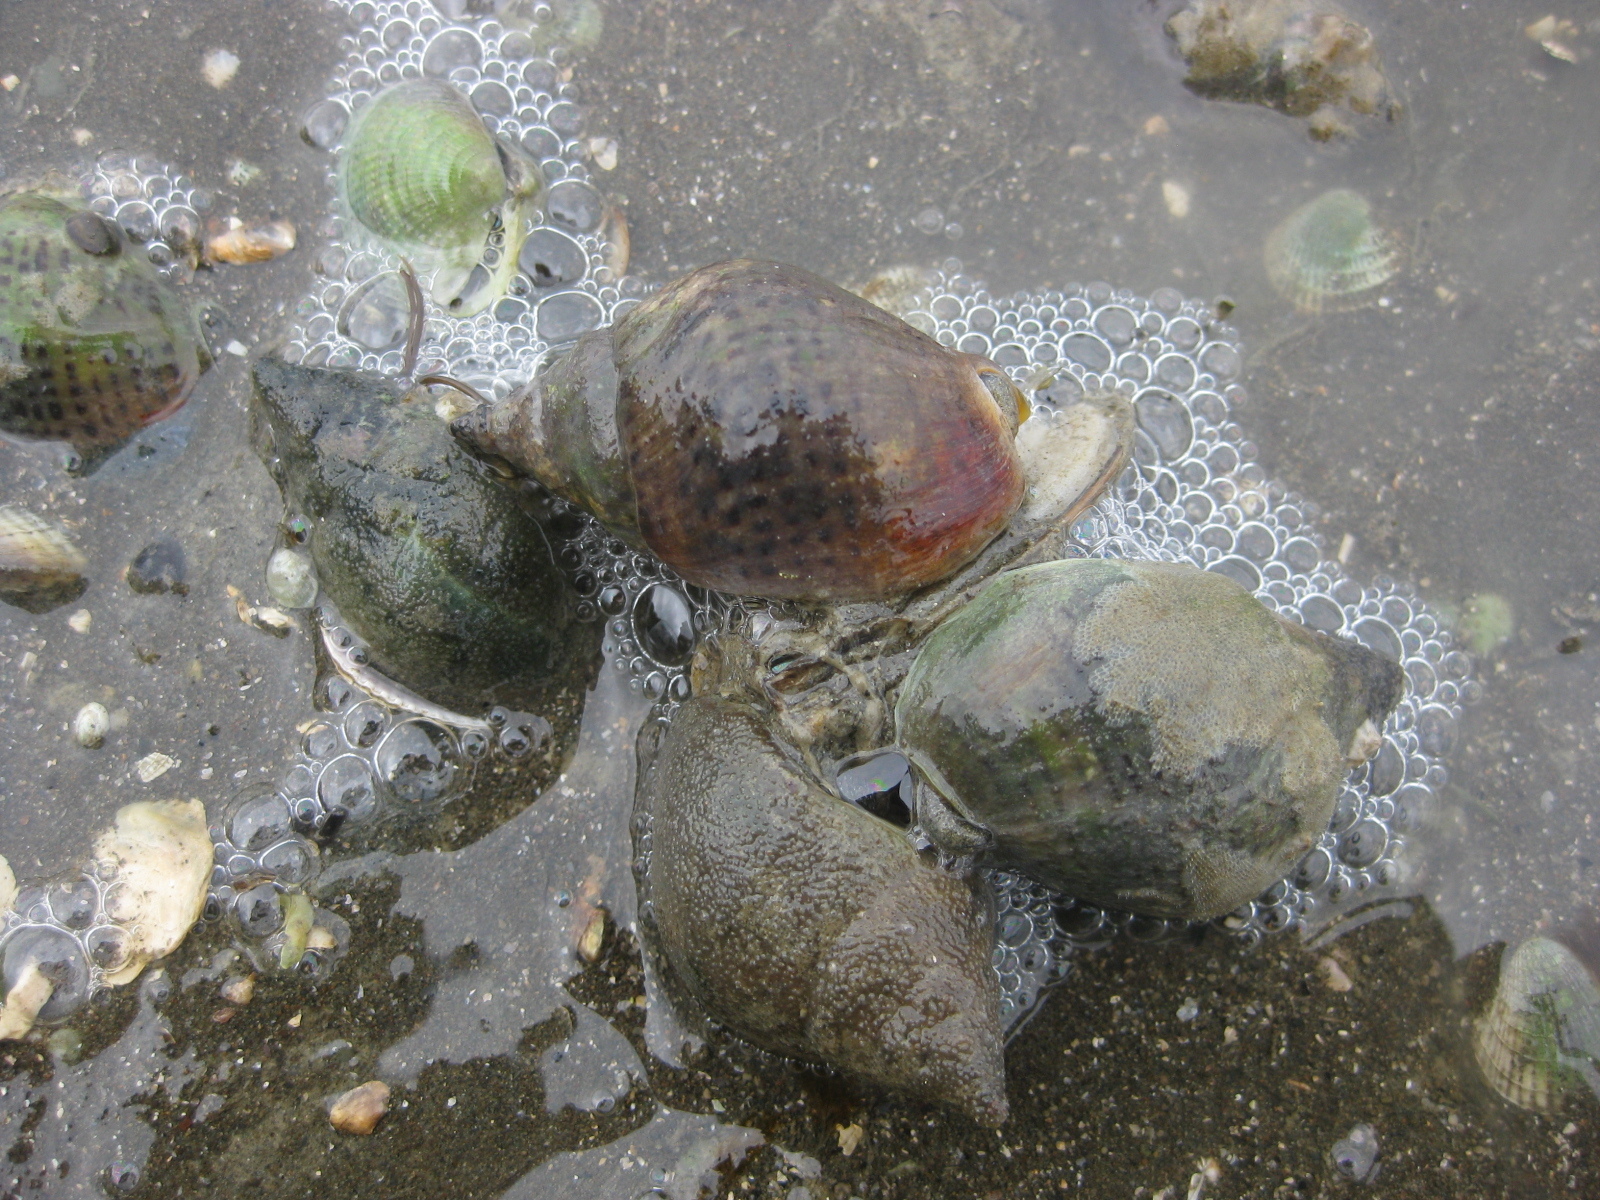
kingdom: Animalia
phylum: Mollusca
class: Gastropoda
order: Neogastropoda
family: Cominellidae
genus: Cominella
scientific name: Cominella adspersa
